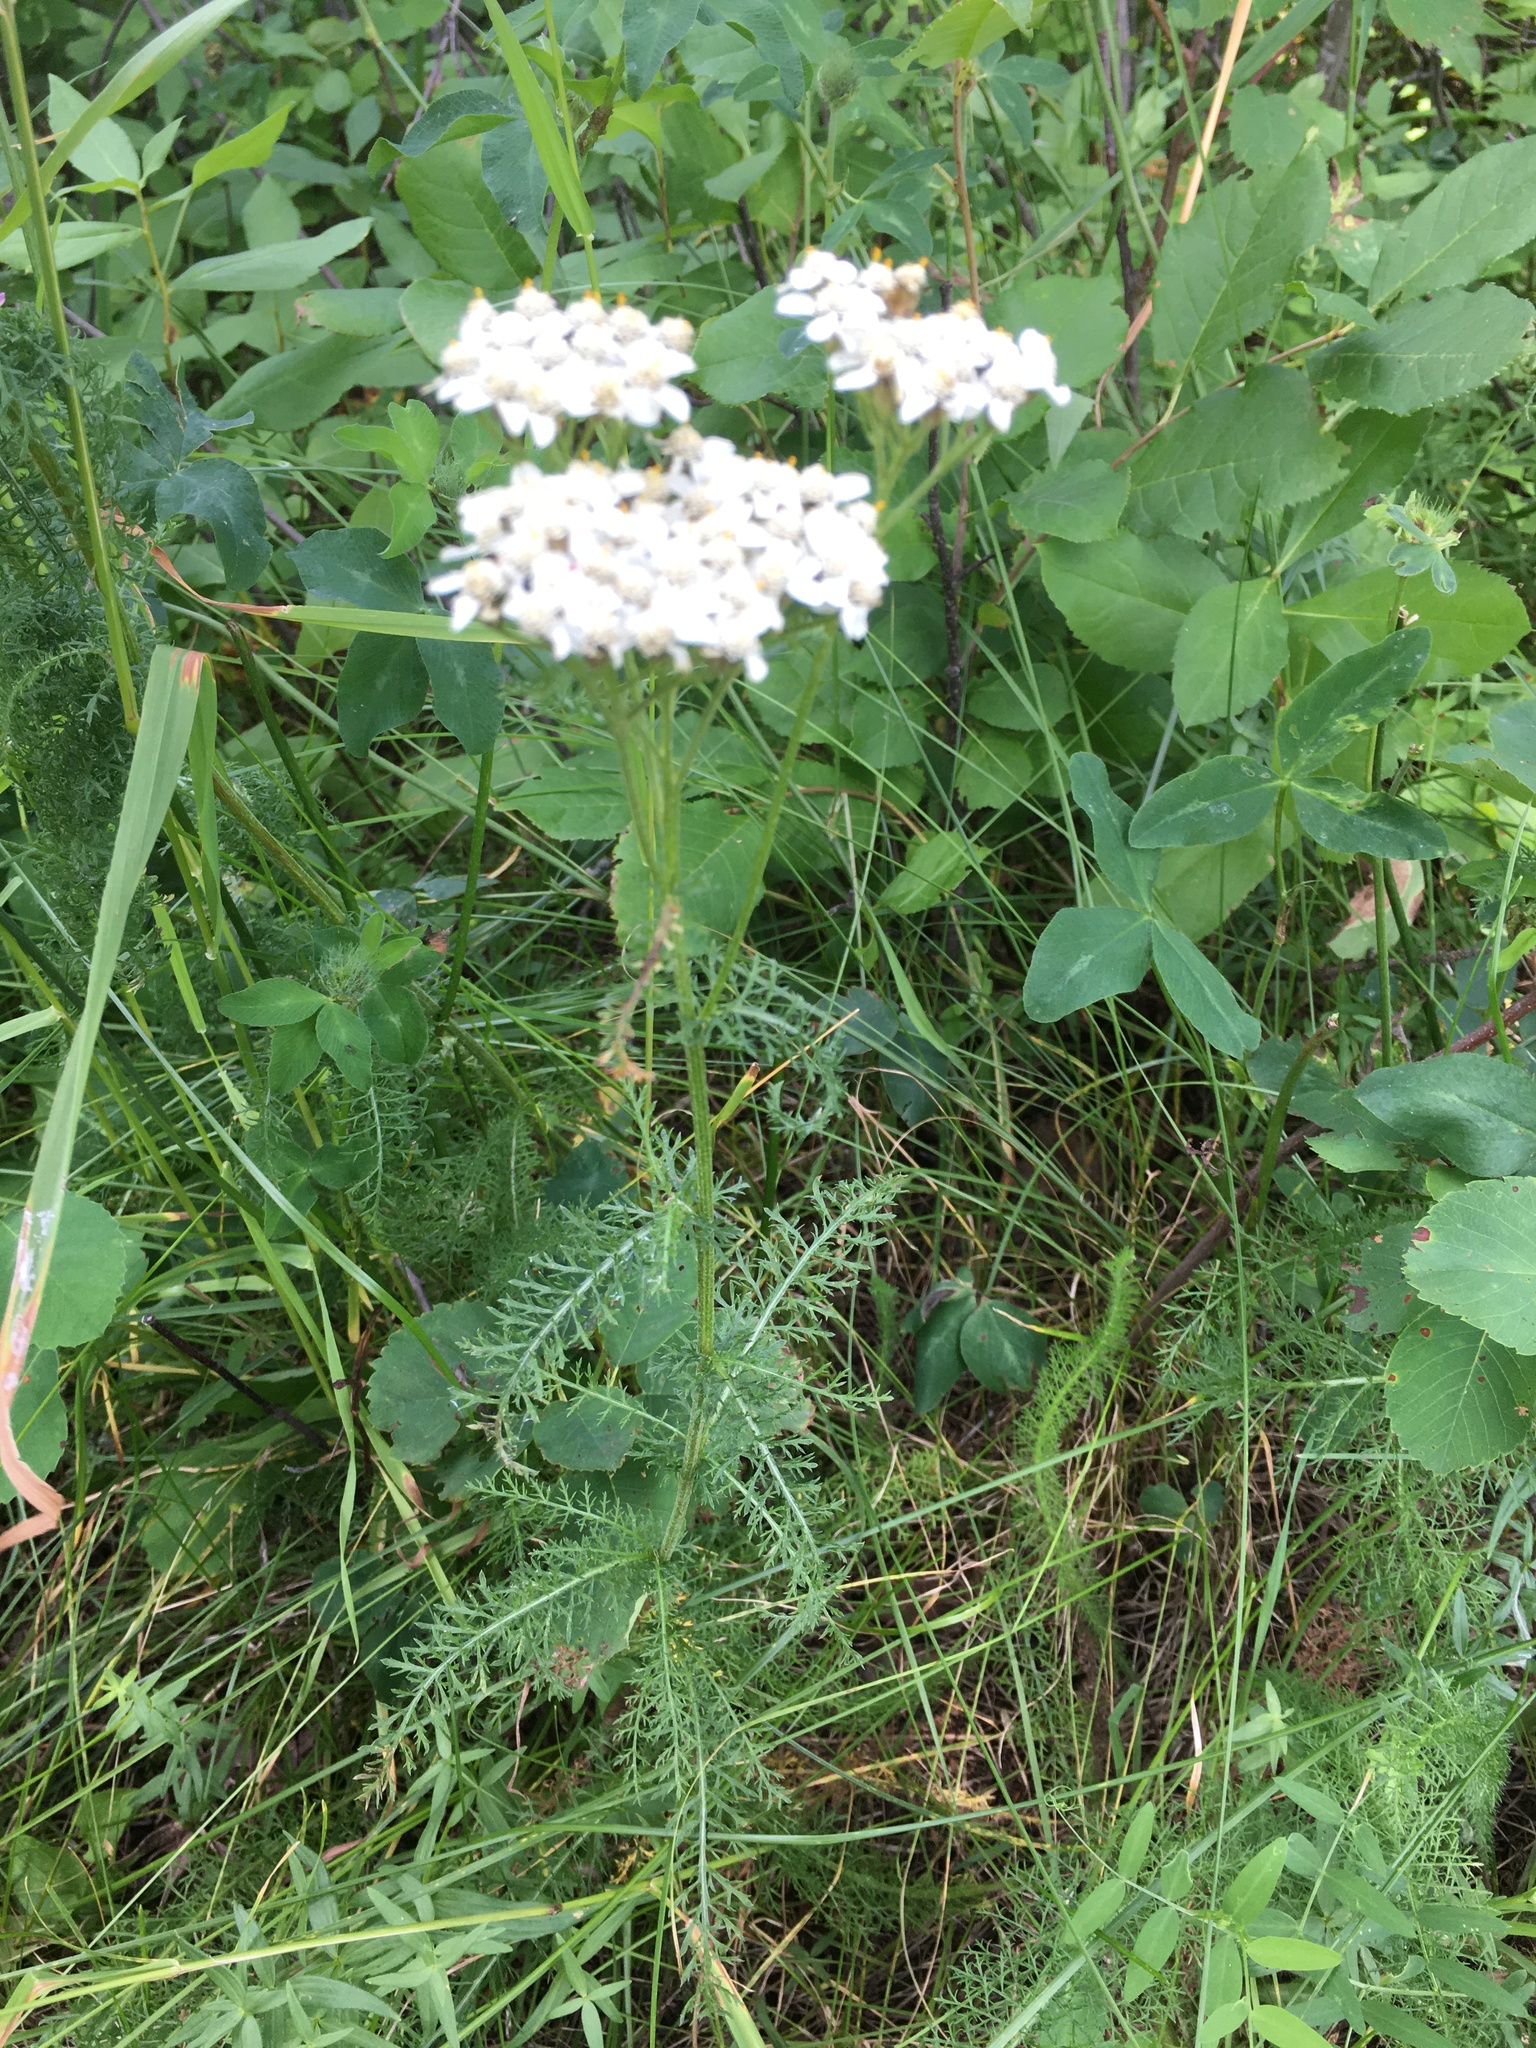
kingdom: Plantae
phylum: Tracheophyta
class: Magnoliopsida
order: Asterales
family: Asteraceae
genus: Achillea
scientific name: Achillea millefolium
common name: Yarrow
